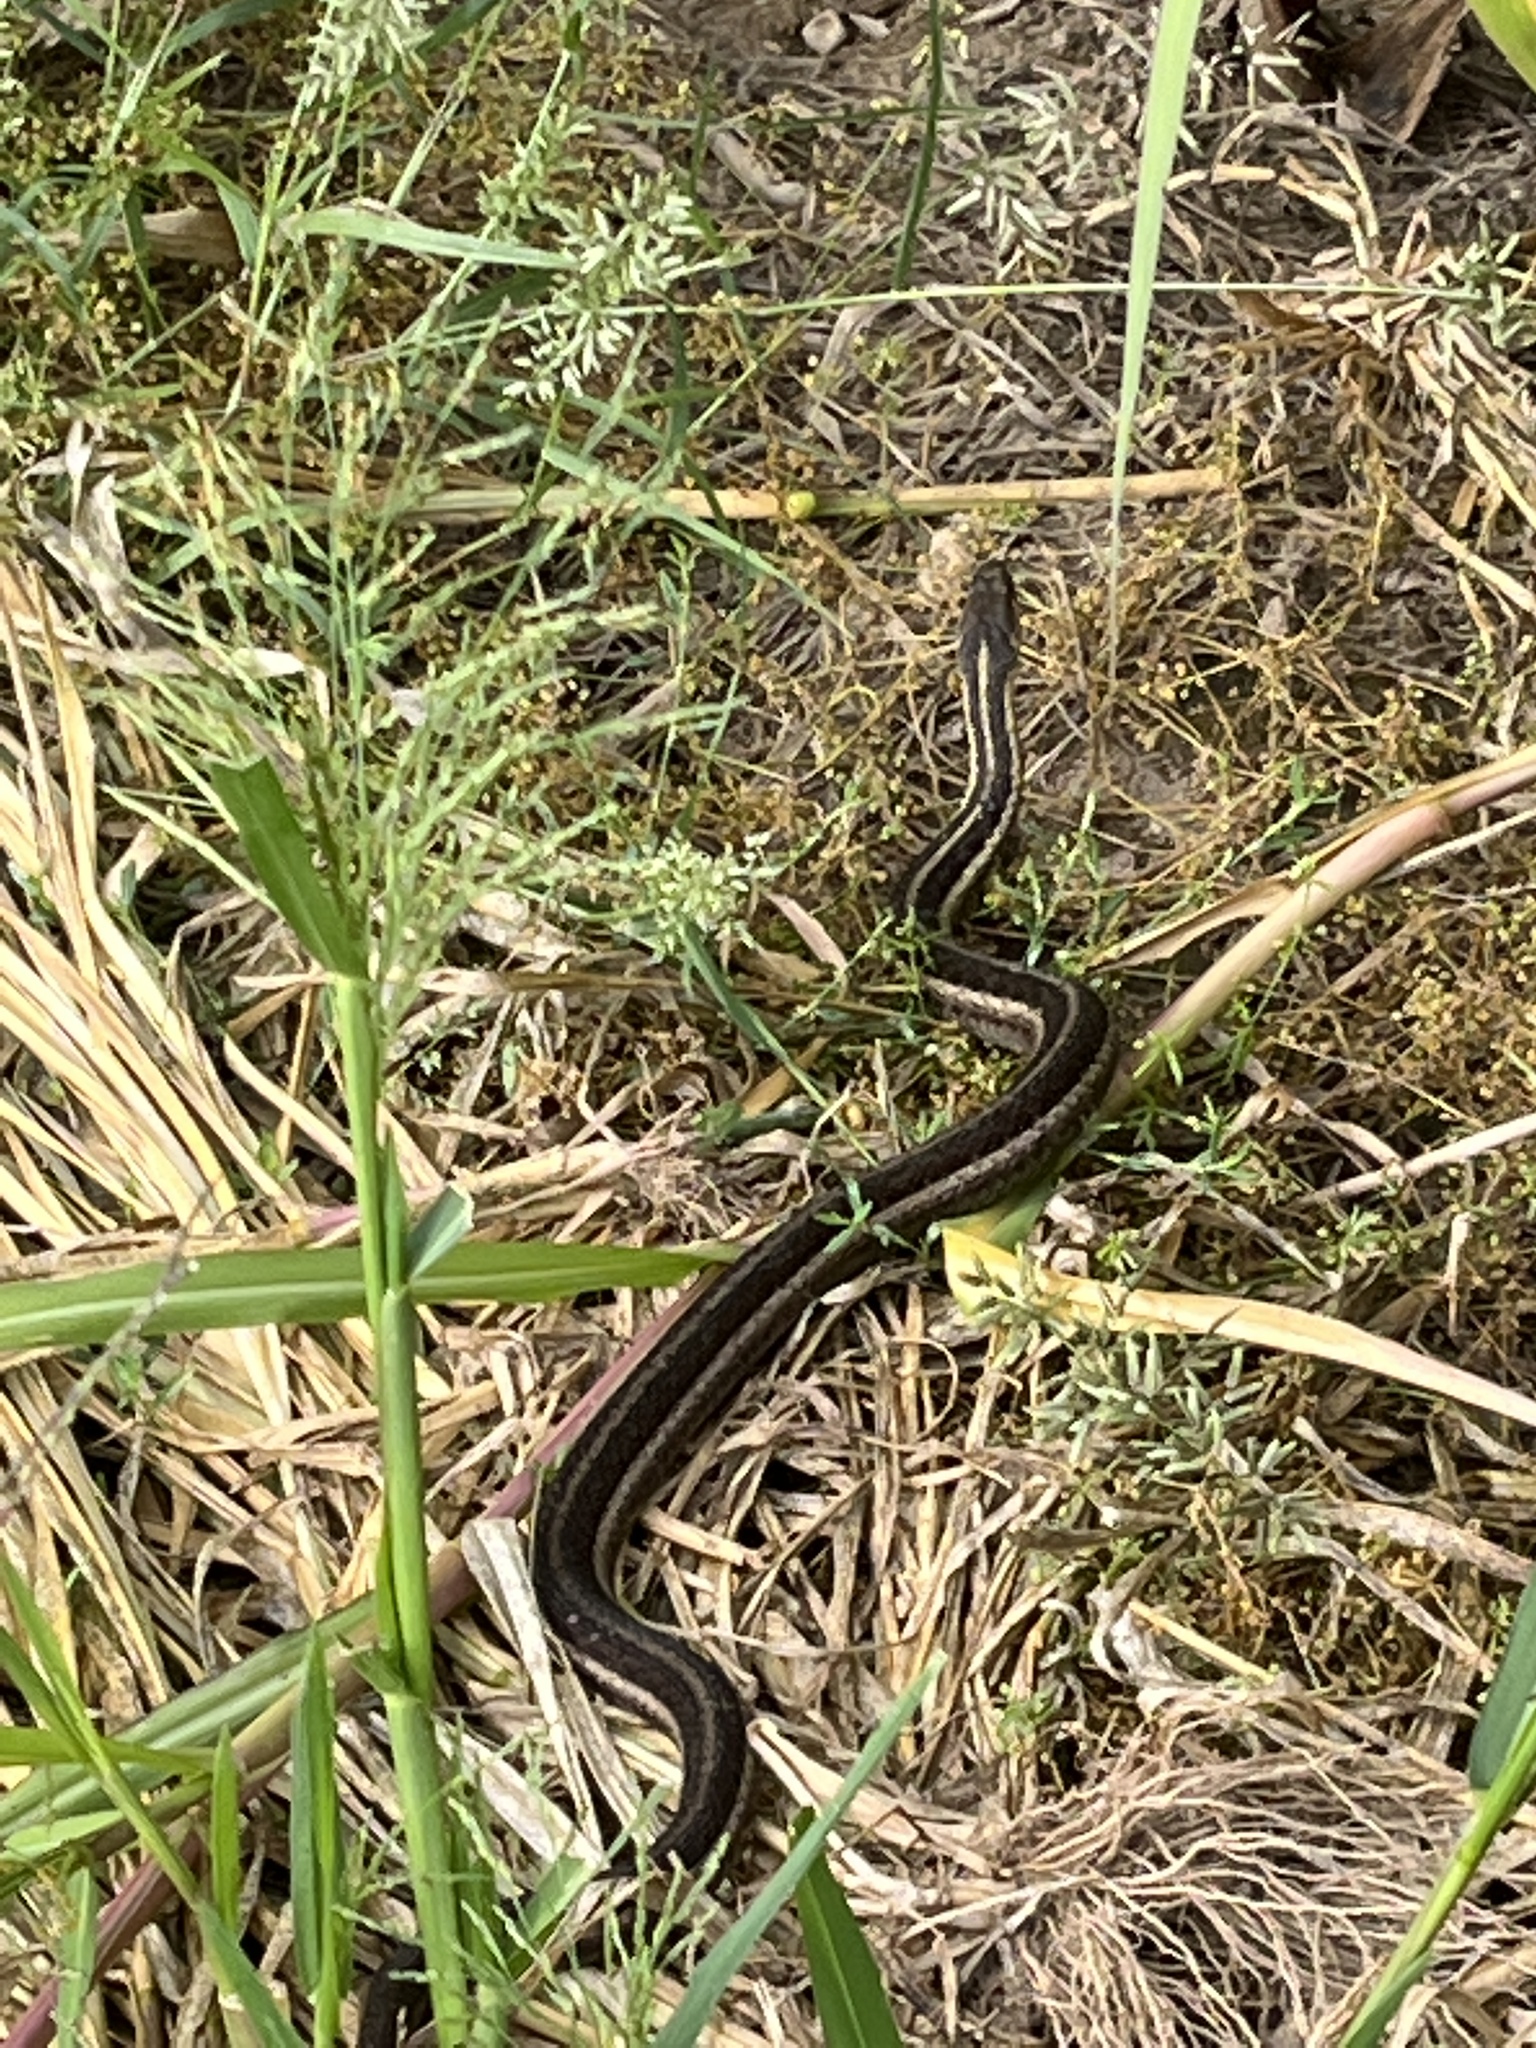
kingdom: Animalia
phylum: Chordata
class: Squamata
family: Colubridae
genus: Thamnophis
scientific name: Thamnophis sirtalis
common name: Common garter snake
